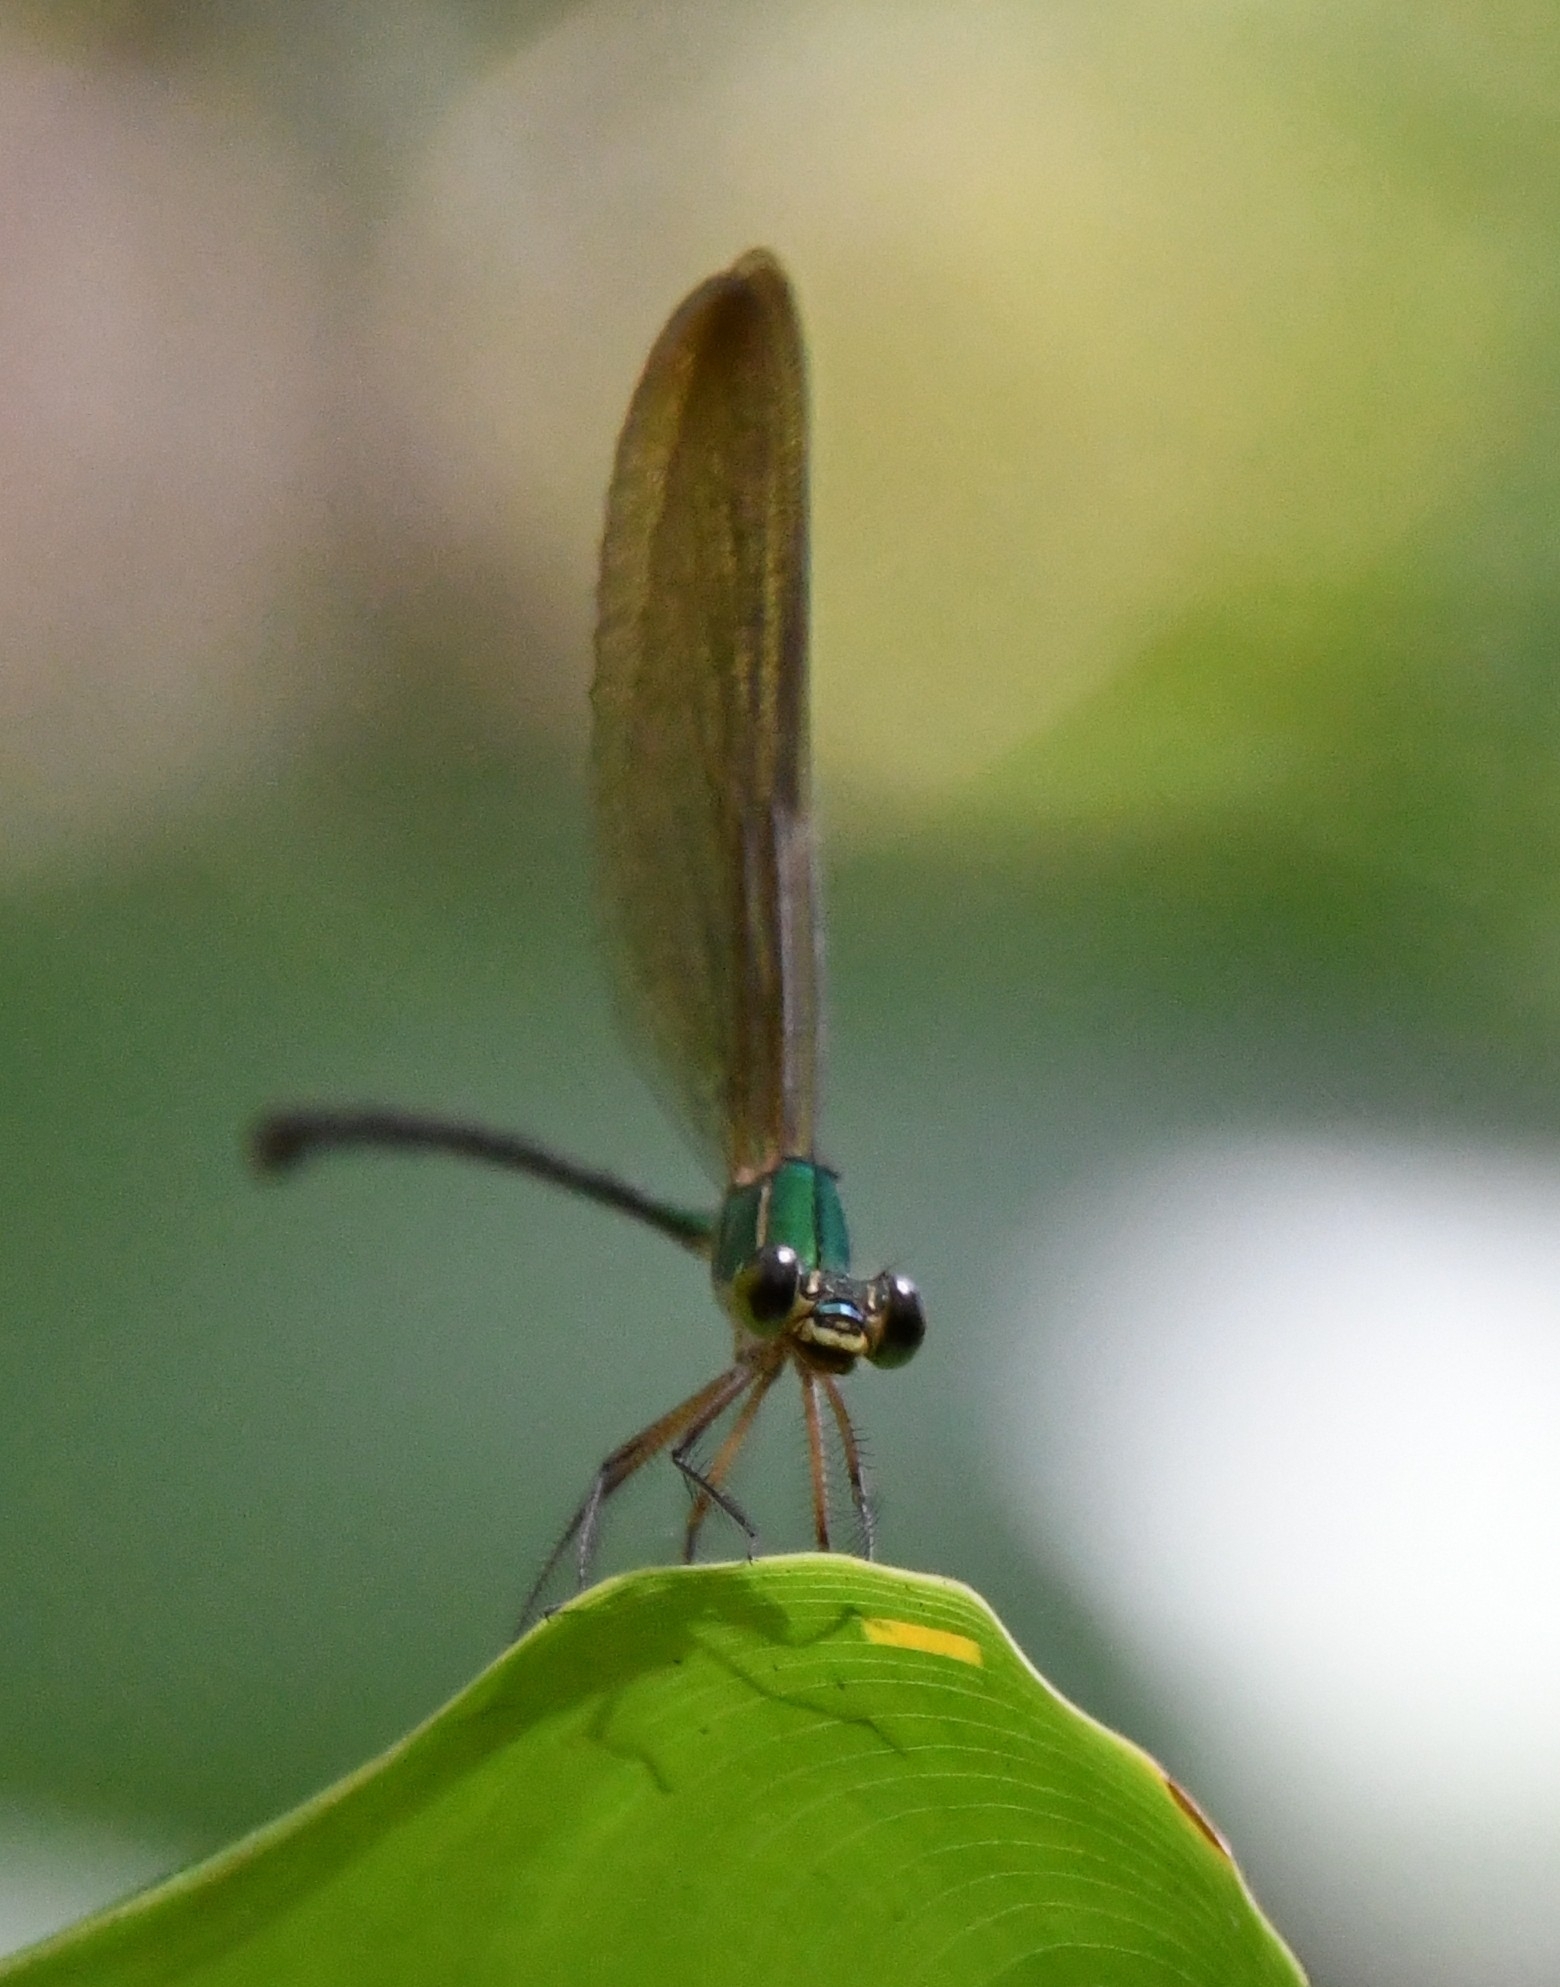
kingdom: Animalia
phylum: Arthropoda
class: Insecta
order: Odonata
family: Calopterygidae
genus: Vestalis
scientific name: Vestalis gracilis
